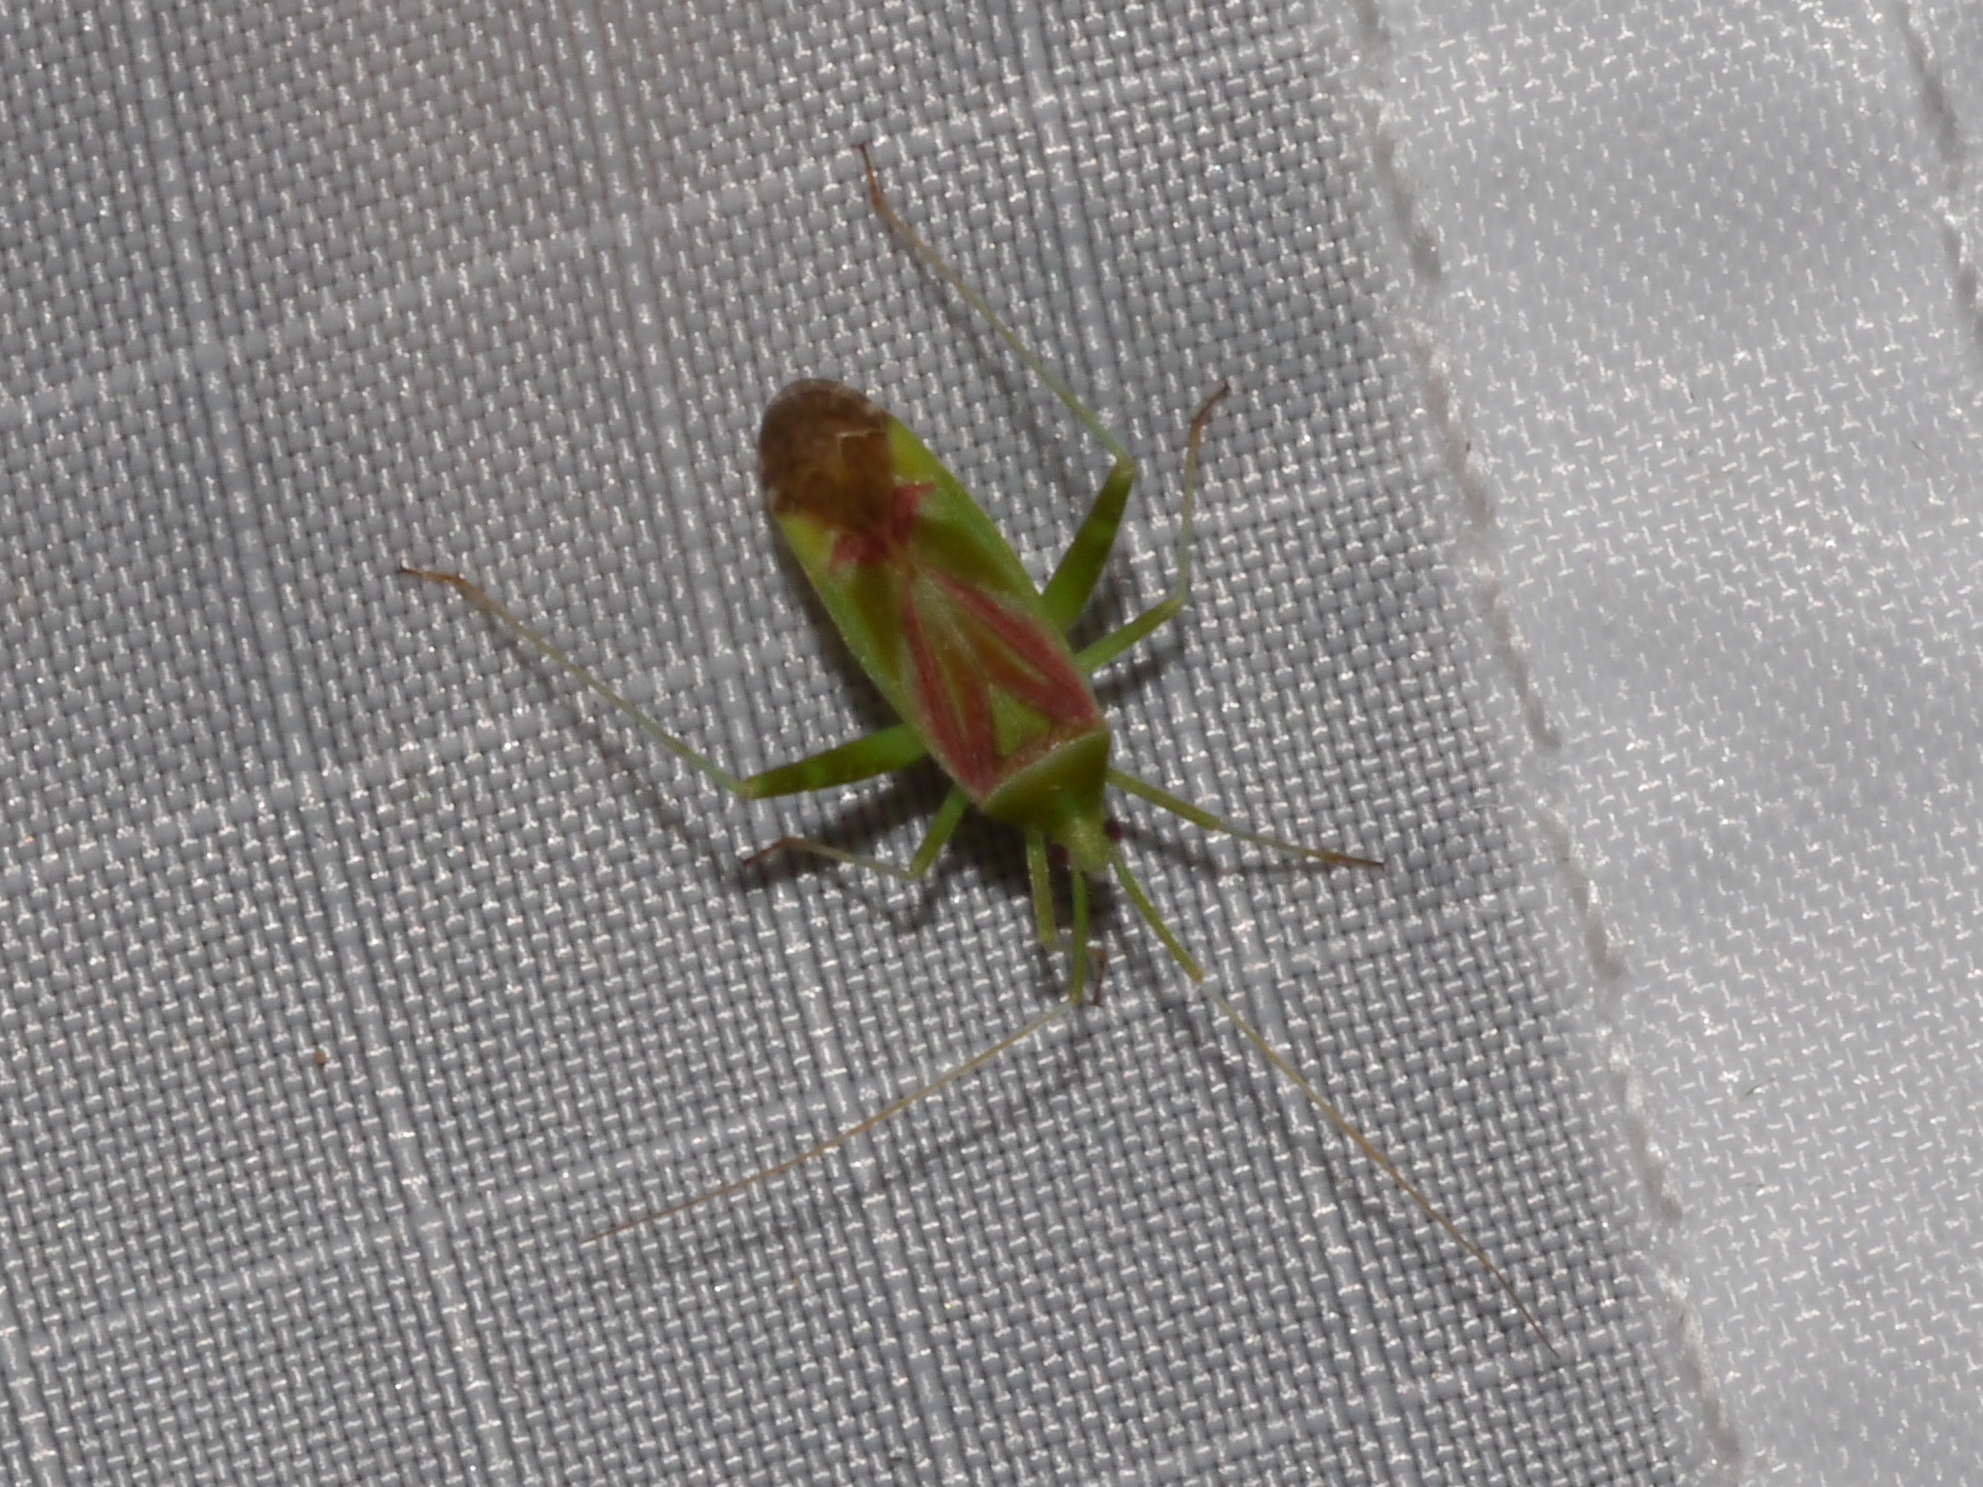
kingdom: Animalia
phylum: Arthropoda
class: Insecta
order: Hemiptera
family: Miridae
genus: Phytocoris
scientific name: Phytocoris roseotinctus
